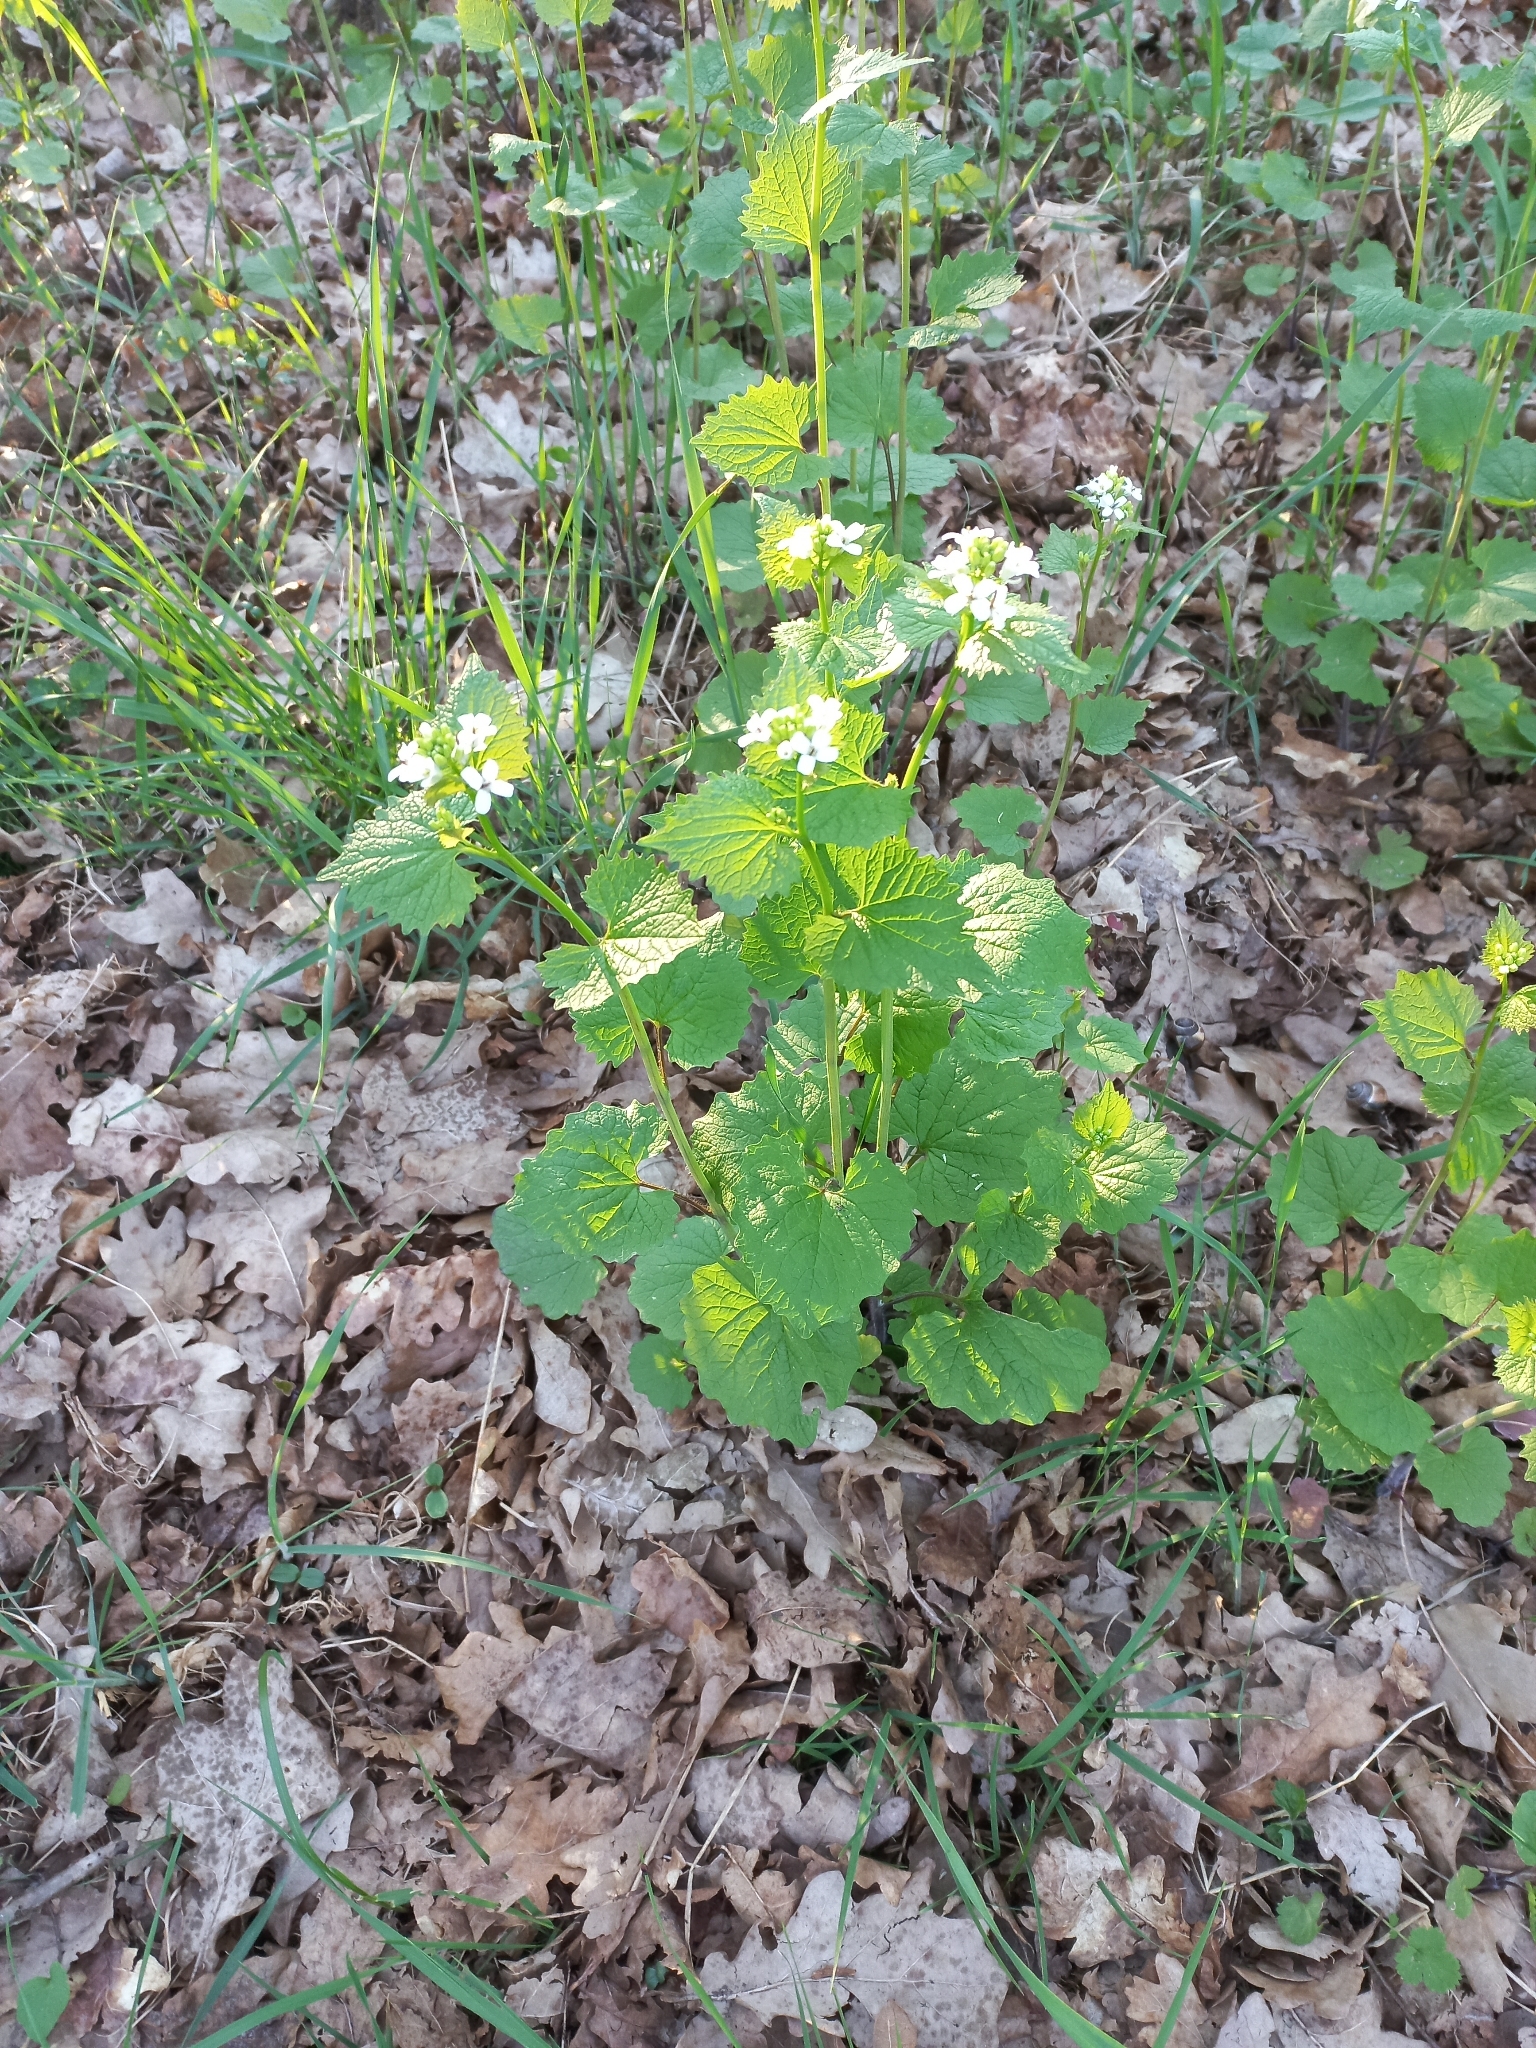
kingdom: Plantae
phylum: Tracheophyta
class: Magnoliopsida
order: Brassicales
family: Brassicaceae
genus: Alliaria
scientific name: Alliaria petiolata
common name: Garlic mustard
